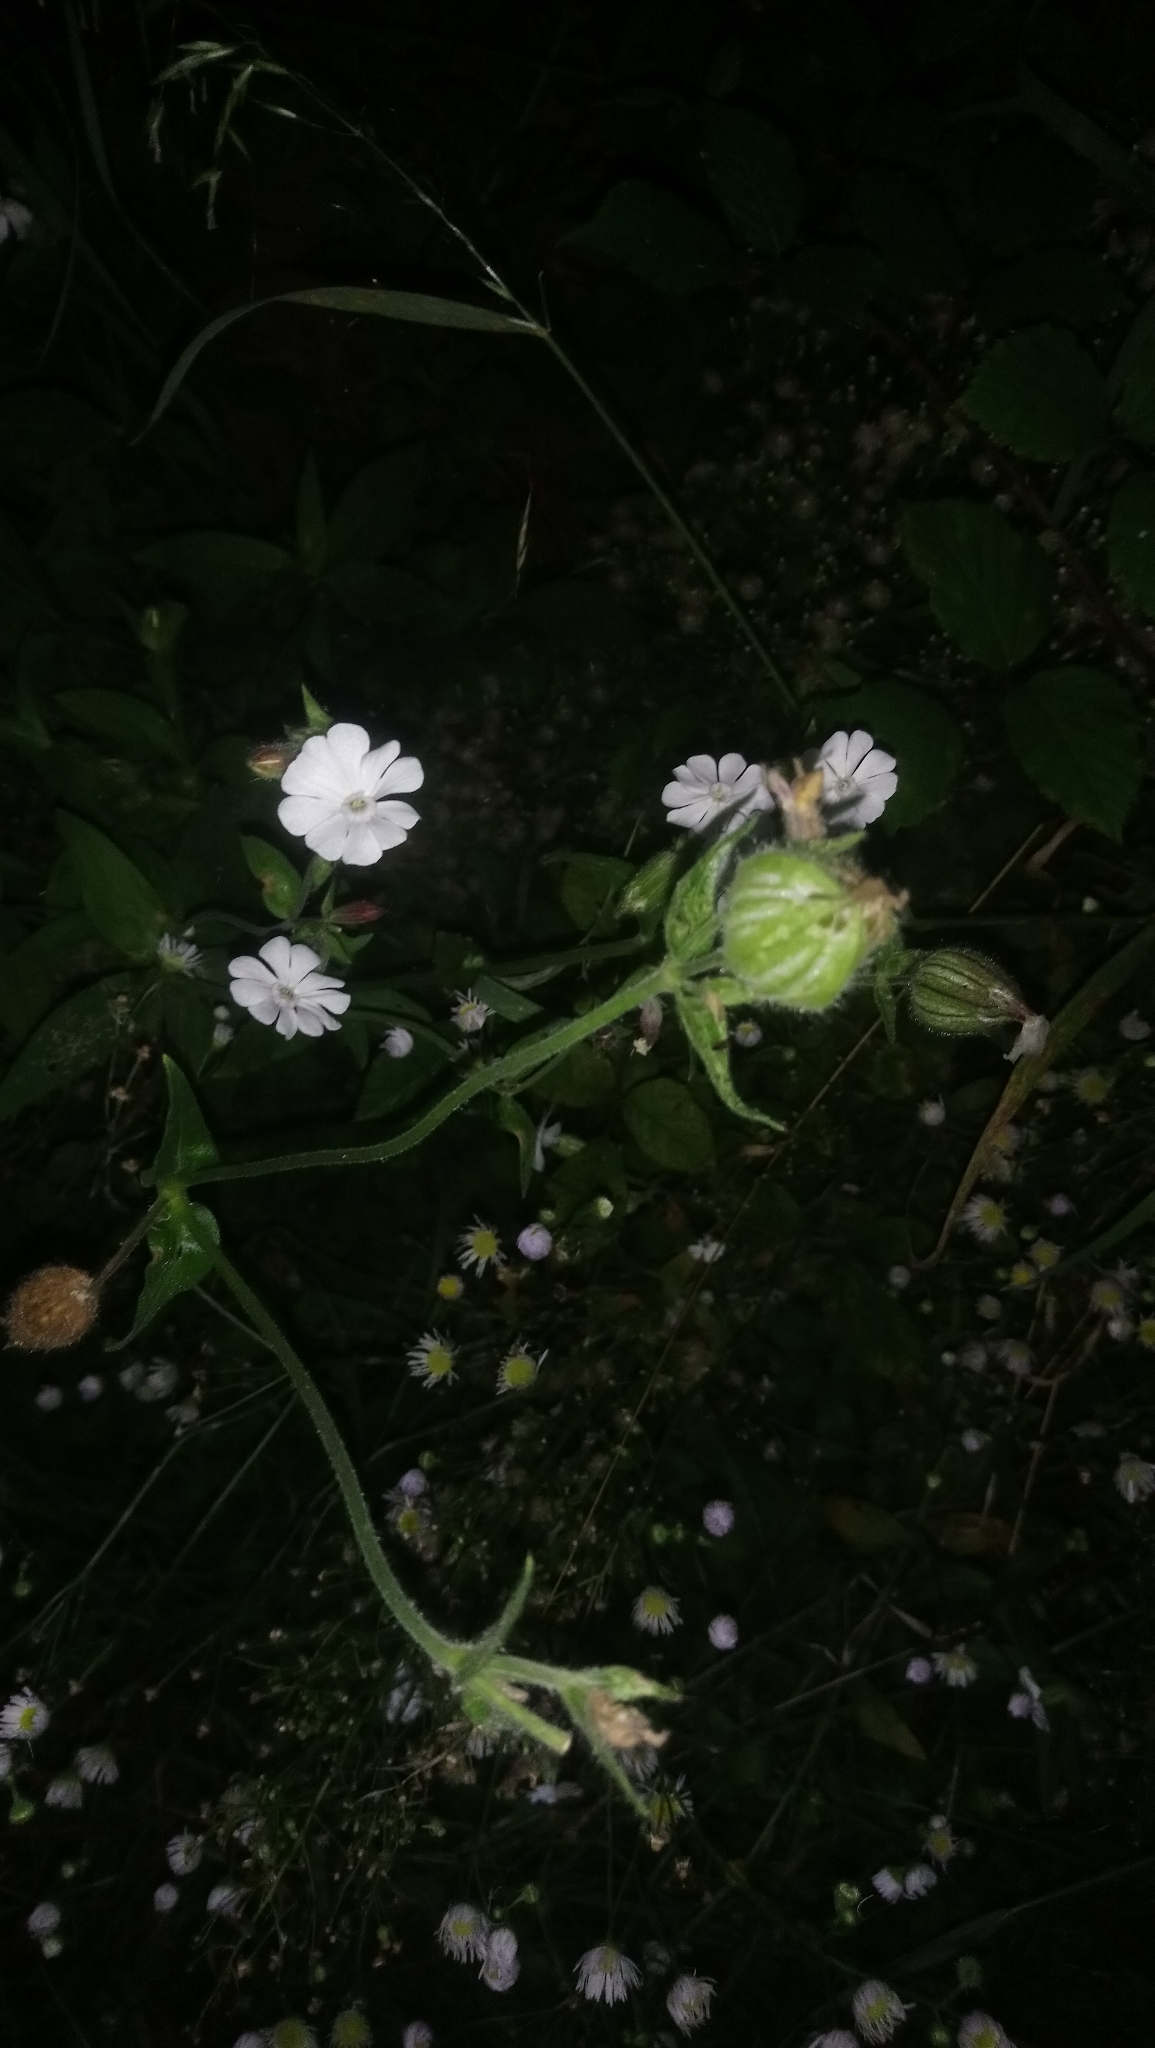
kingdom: Plantae
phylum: Tracheophyta
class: Magnoliopsida
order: Caryophyllales
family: Caryophyllaceae
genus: Silene
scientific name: Silene latifolia
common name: White campion
